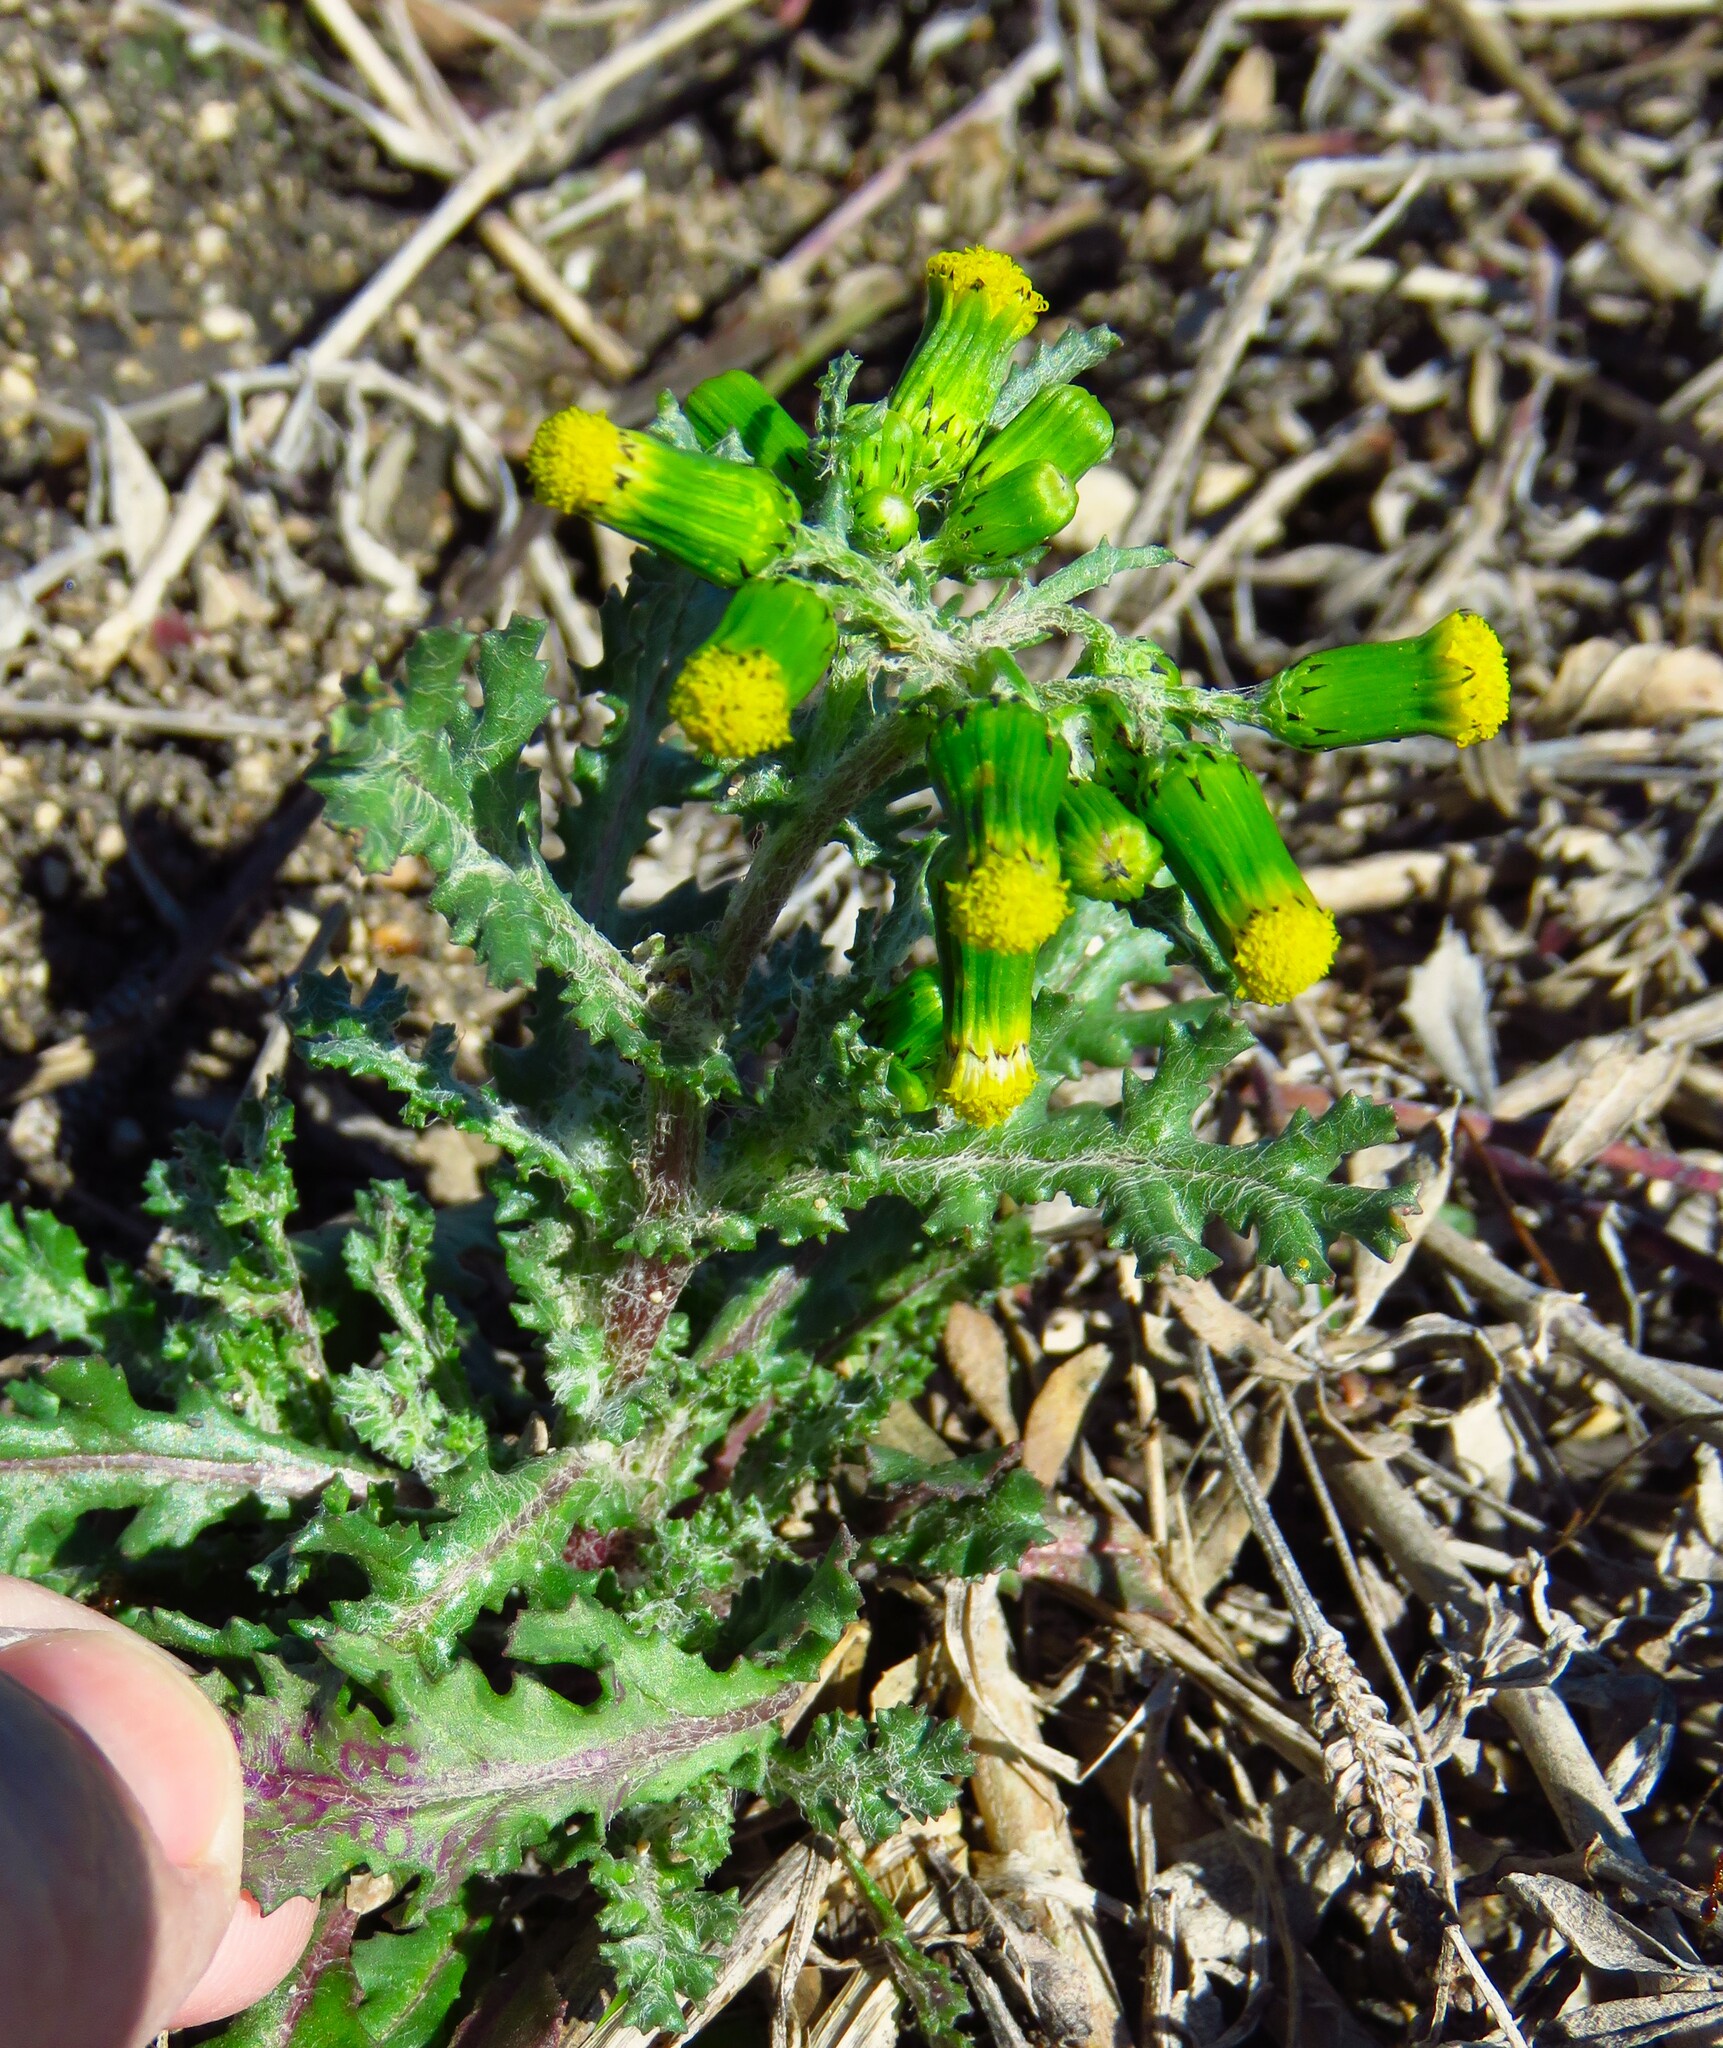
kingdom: Plantae
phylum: Tracheophyta
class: Magnoliopsida
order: Asterales
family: Asteraceae
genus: Senecio
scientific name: Senecio vulgaris
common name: Old-man-in-the-spring
